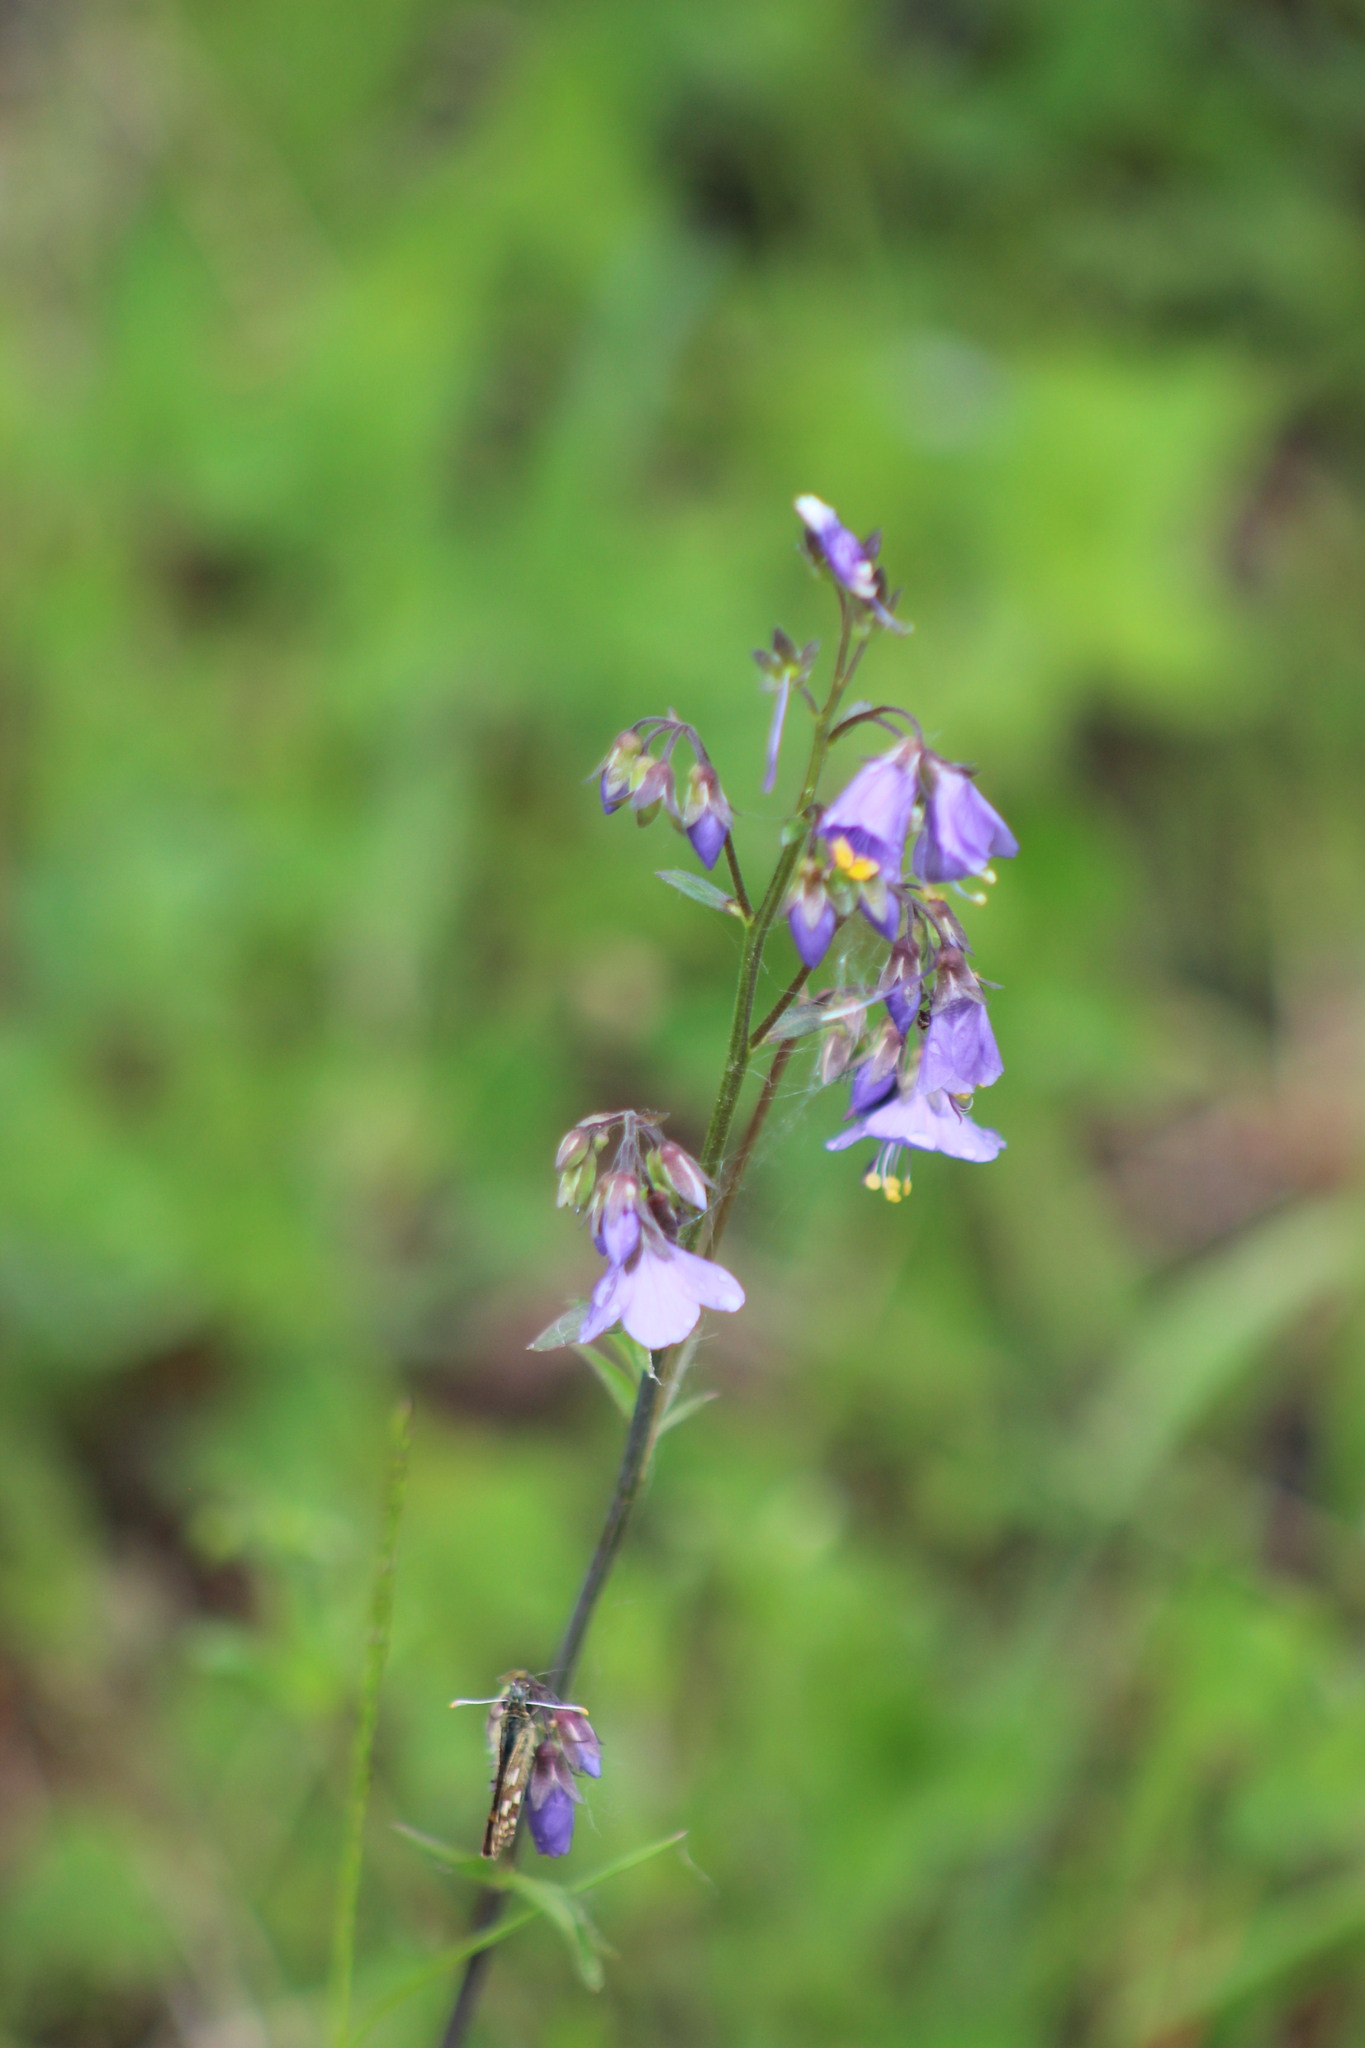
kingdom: Plantae
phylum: Tracheophyta
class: Magnoliopsida
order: Ericales
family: Polemoniaceae
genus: Polemonium
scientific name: Polemonium caeruleum
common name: Jacob's-ladder
